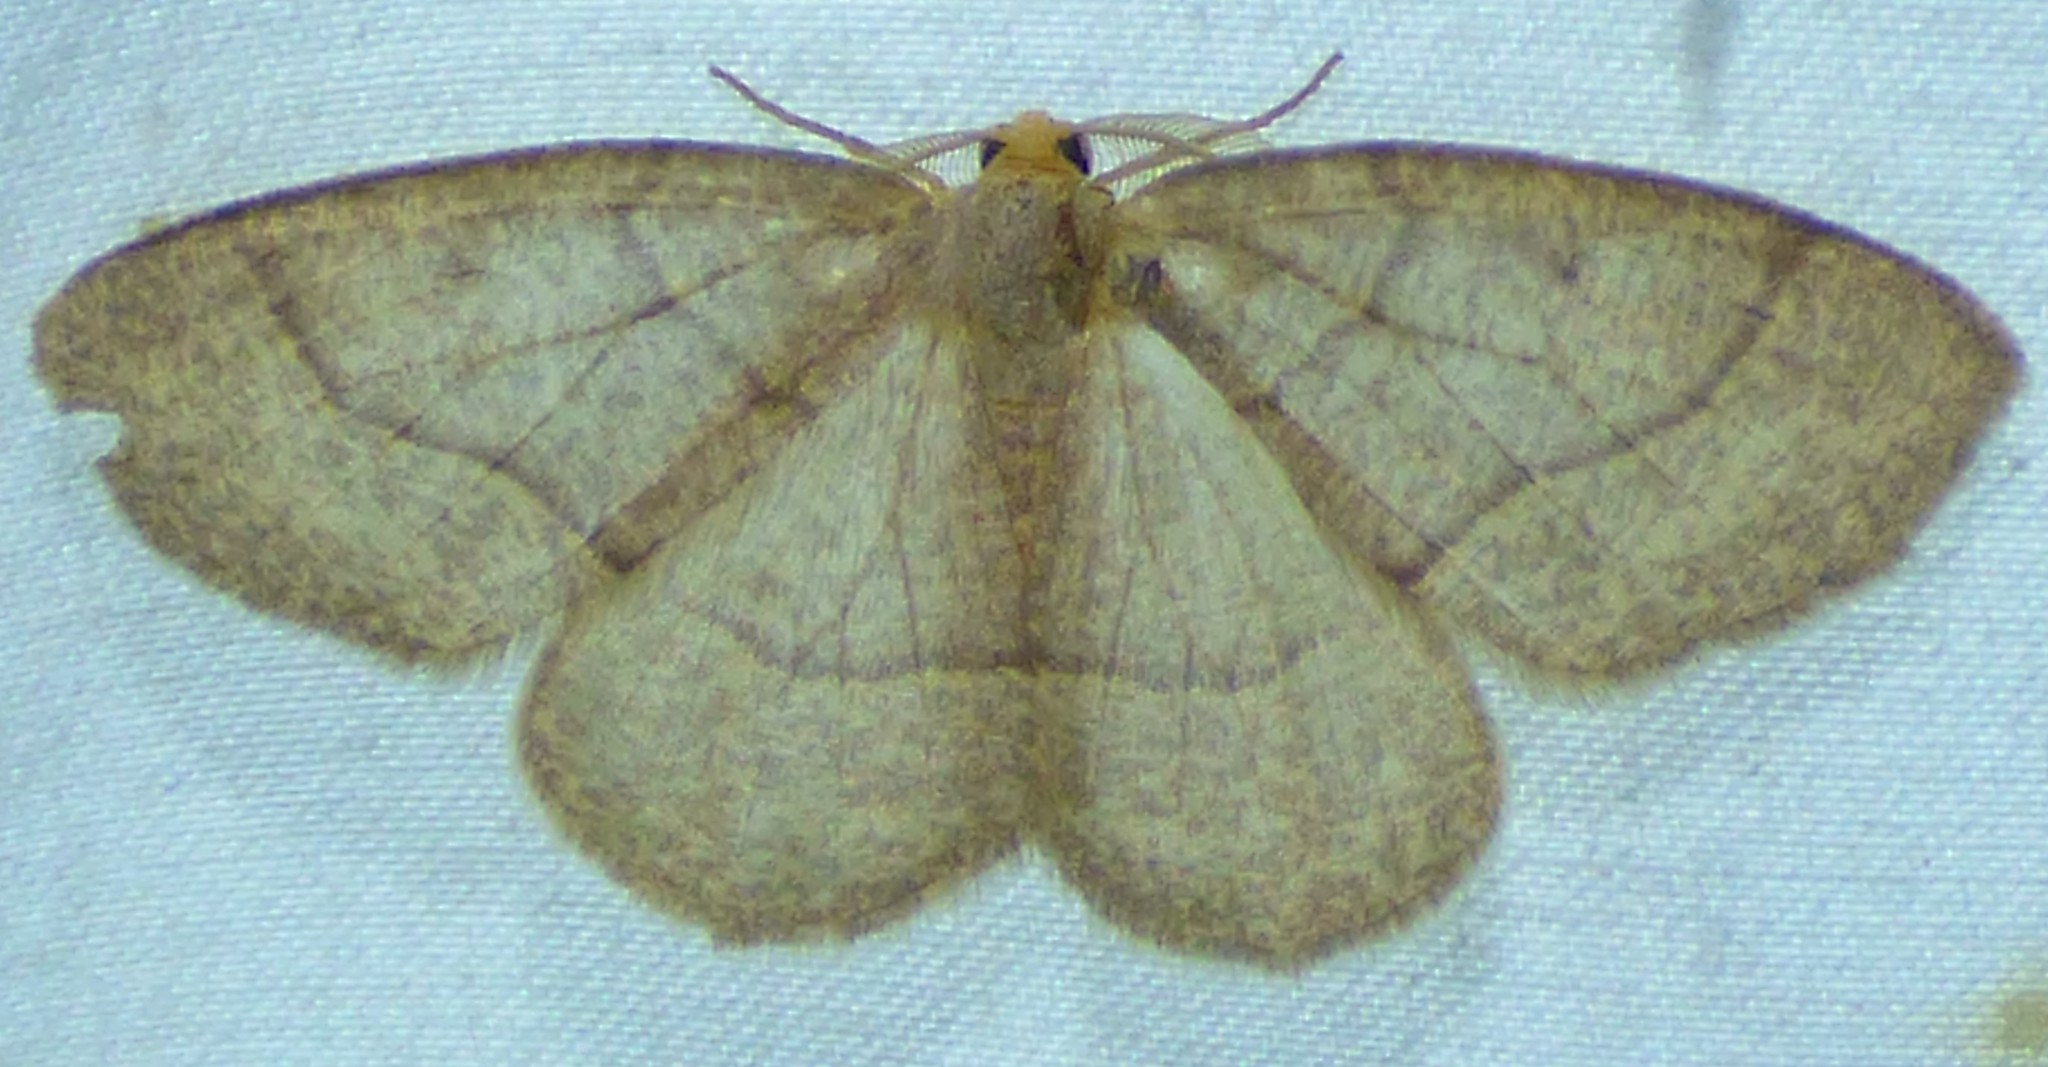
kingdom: Animalia
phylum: Arthropoda
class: Insecta
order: Lepidoptera
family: Geometridae
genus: Lambdina
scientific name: Lambdina fervidaria
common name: Curve-lined looper moth
